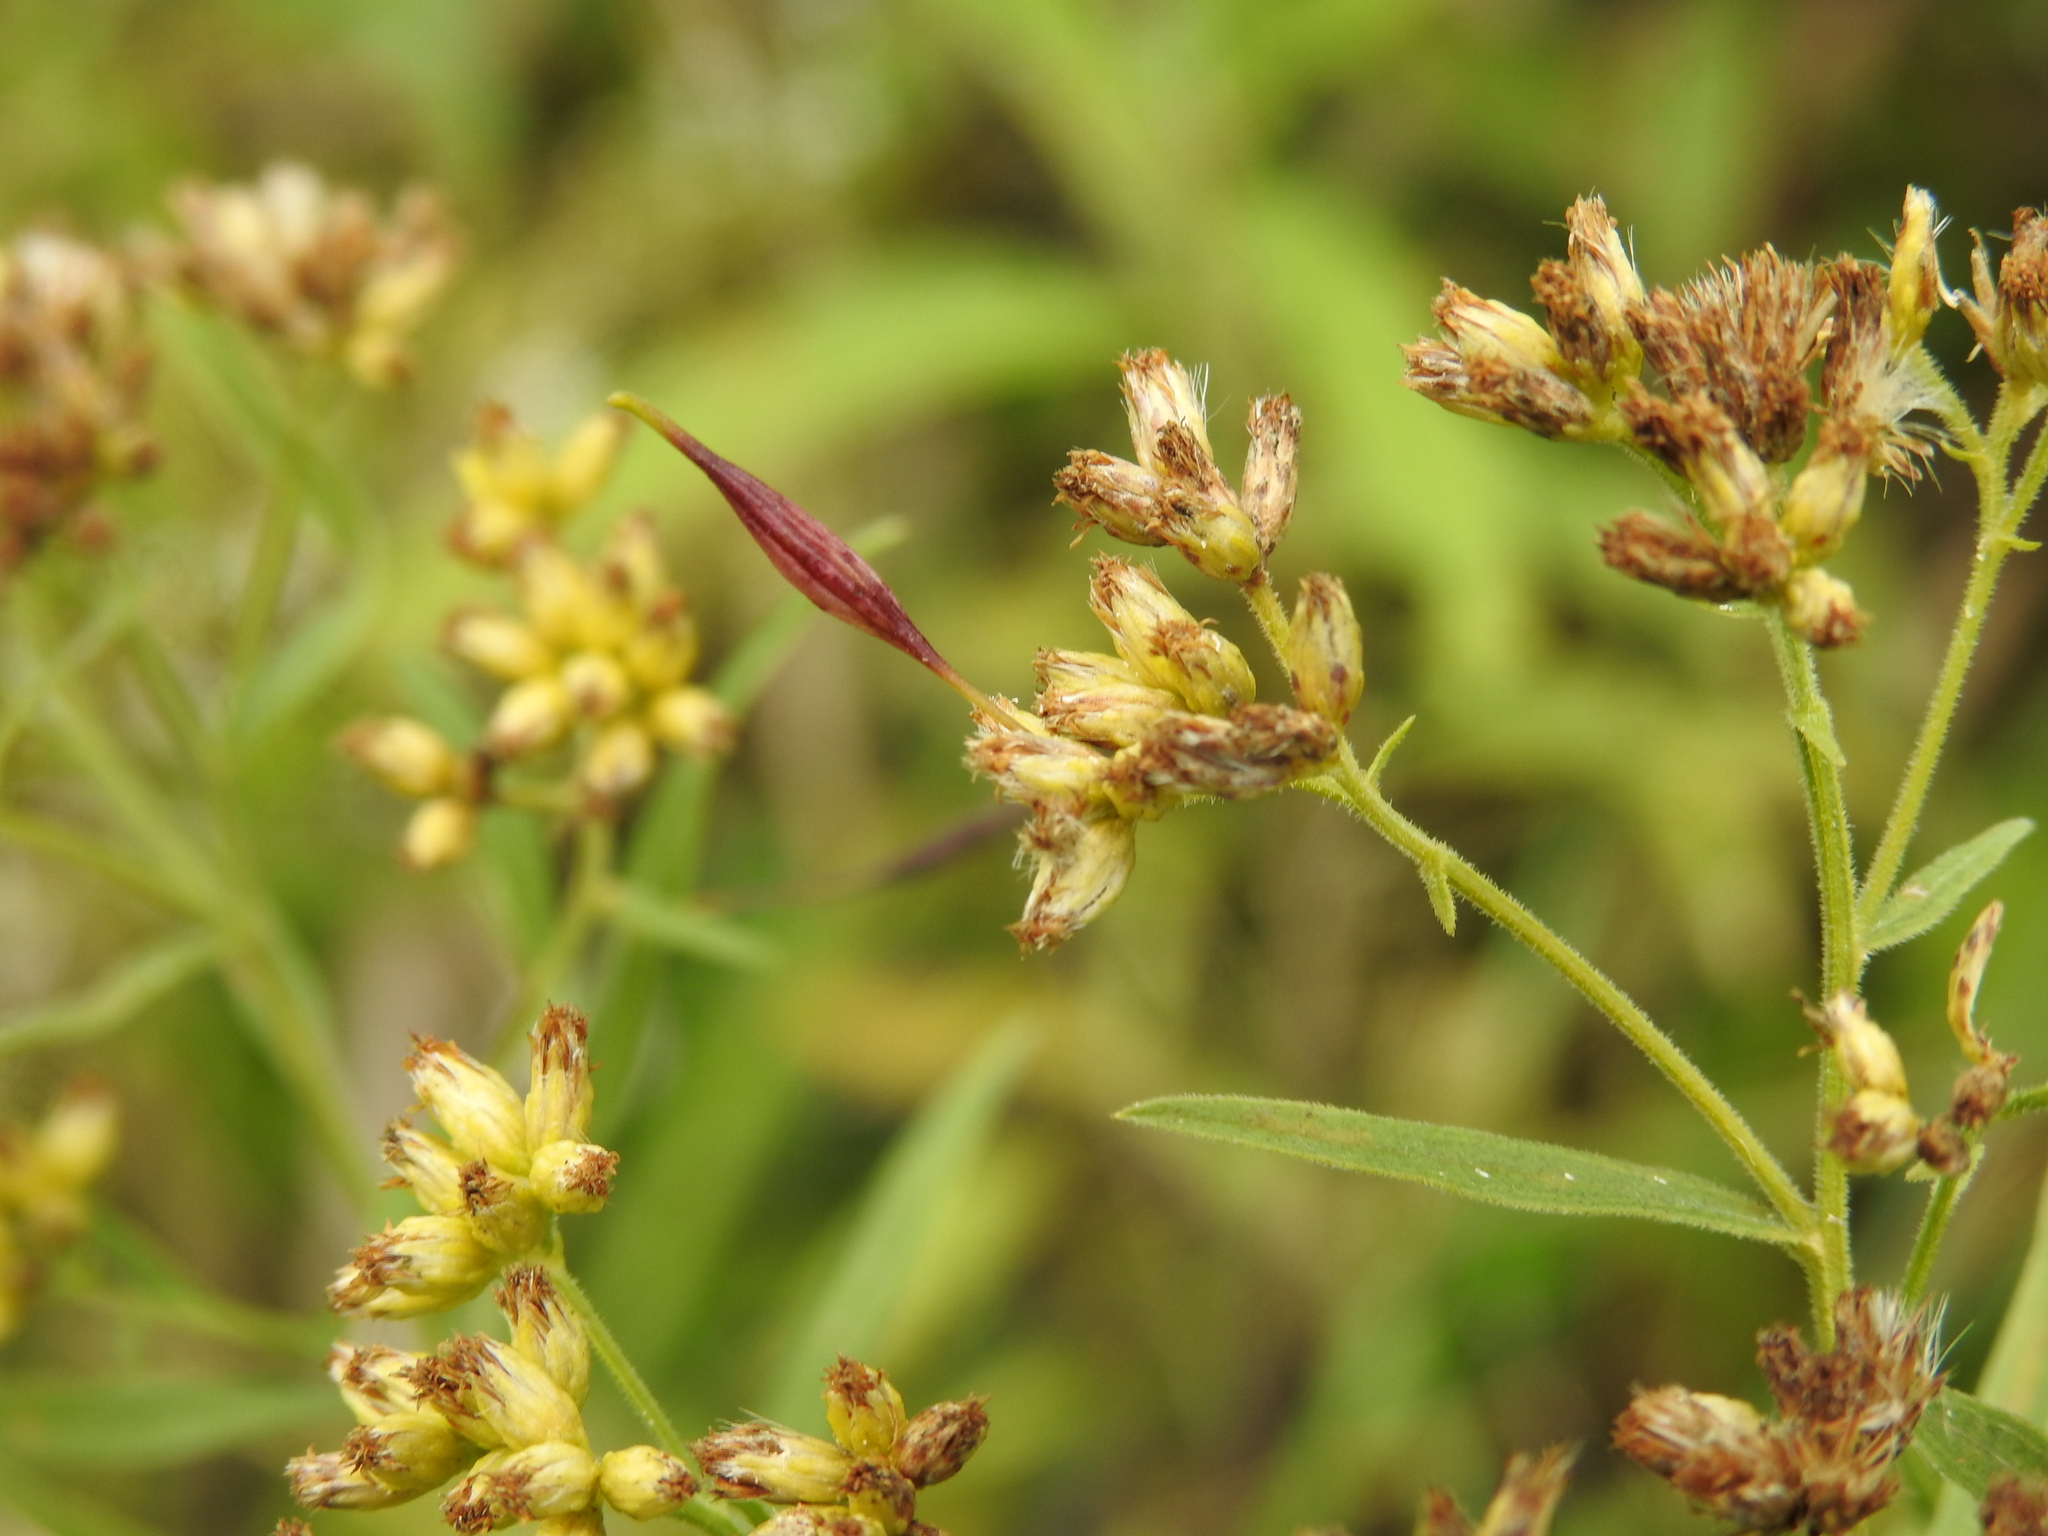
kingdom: Animalia
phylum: Arthropoda
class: Insecta
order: Diptera
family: Cecidomyiidae
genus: Rhopalomyia
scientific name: Rhopalomyia pedicellata
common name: Goldentop pedicellate gall midge
